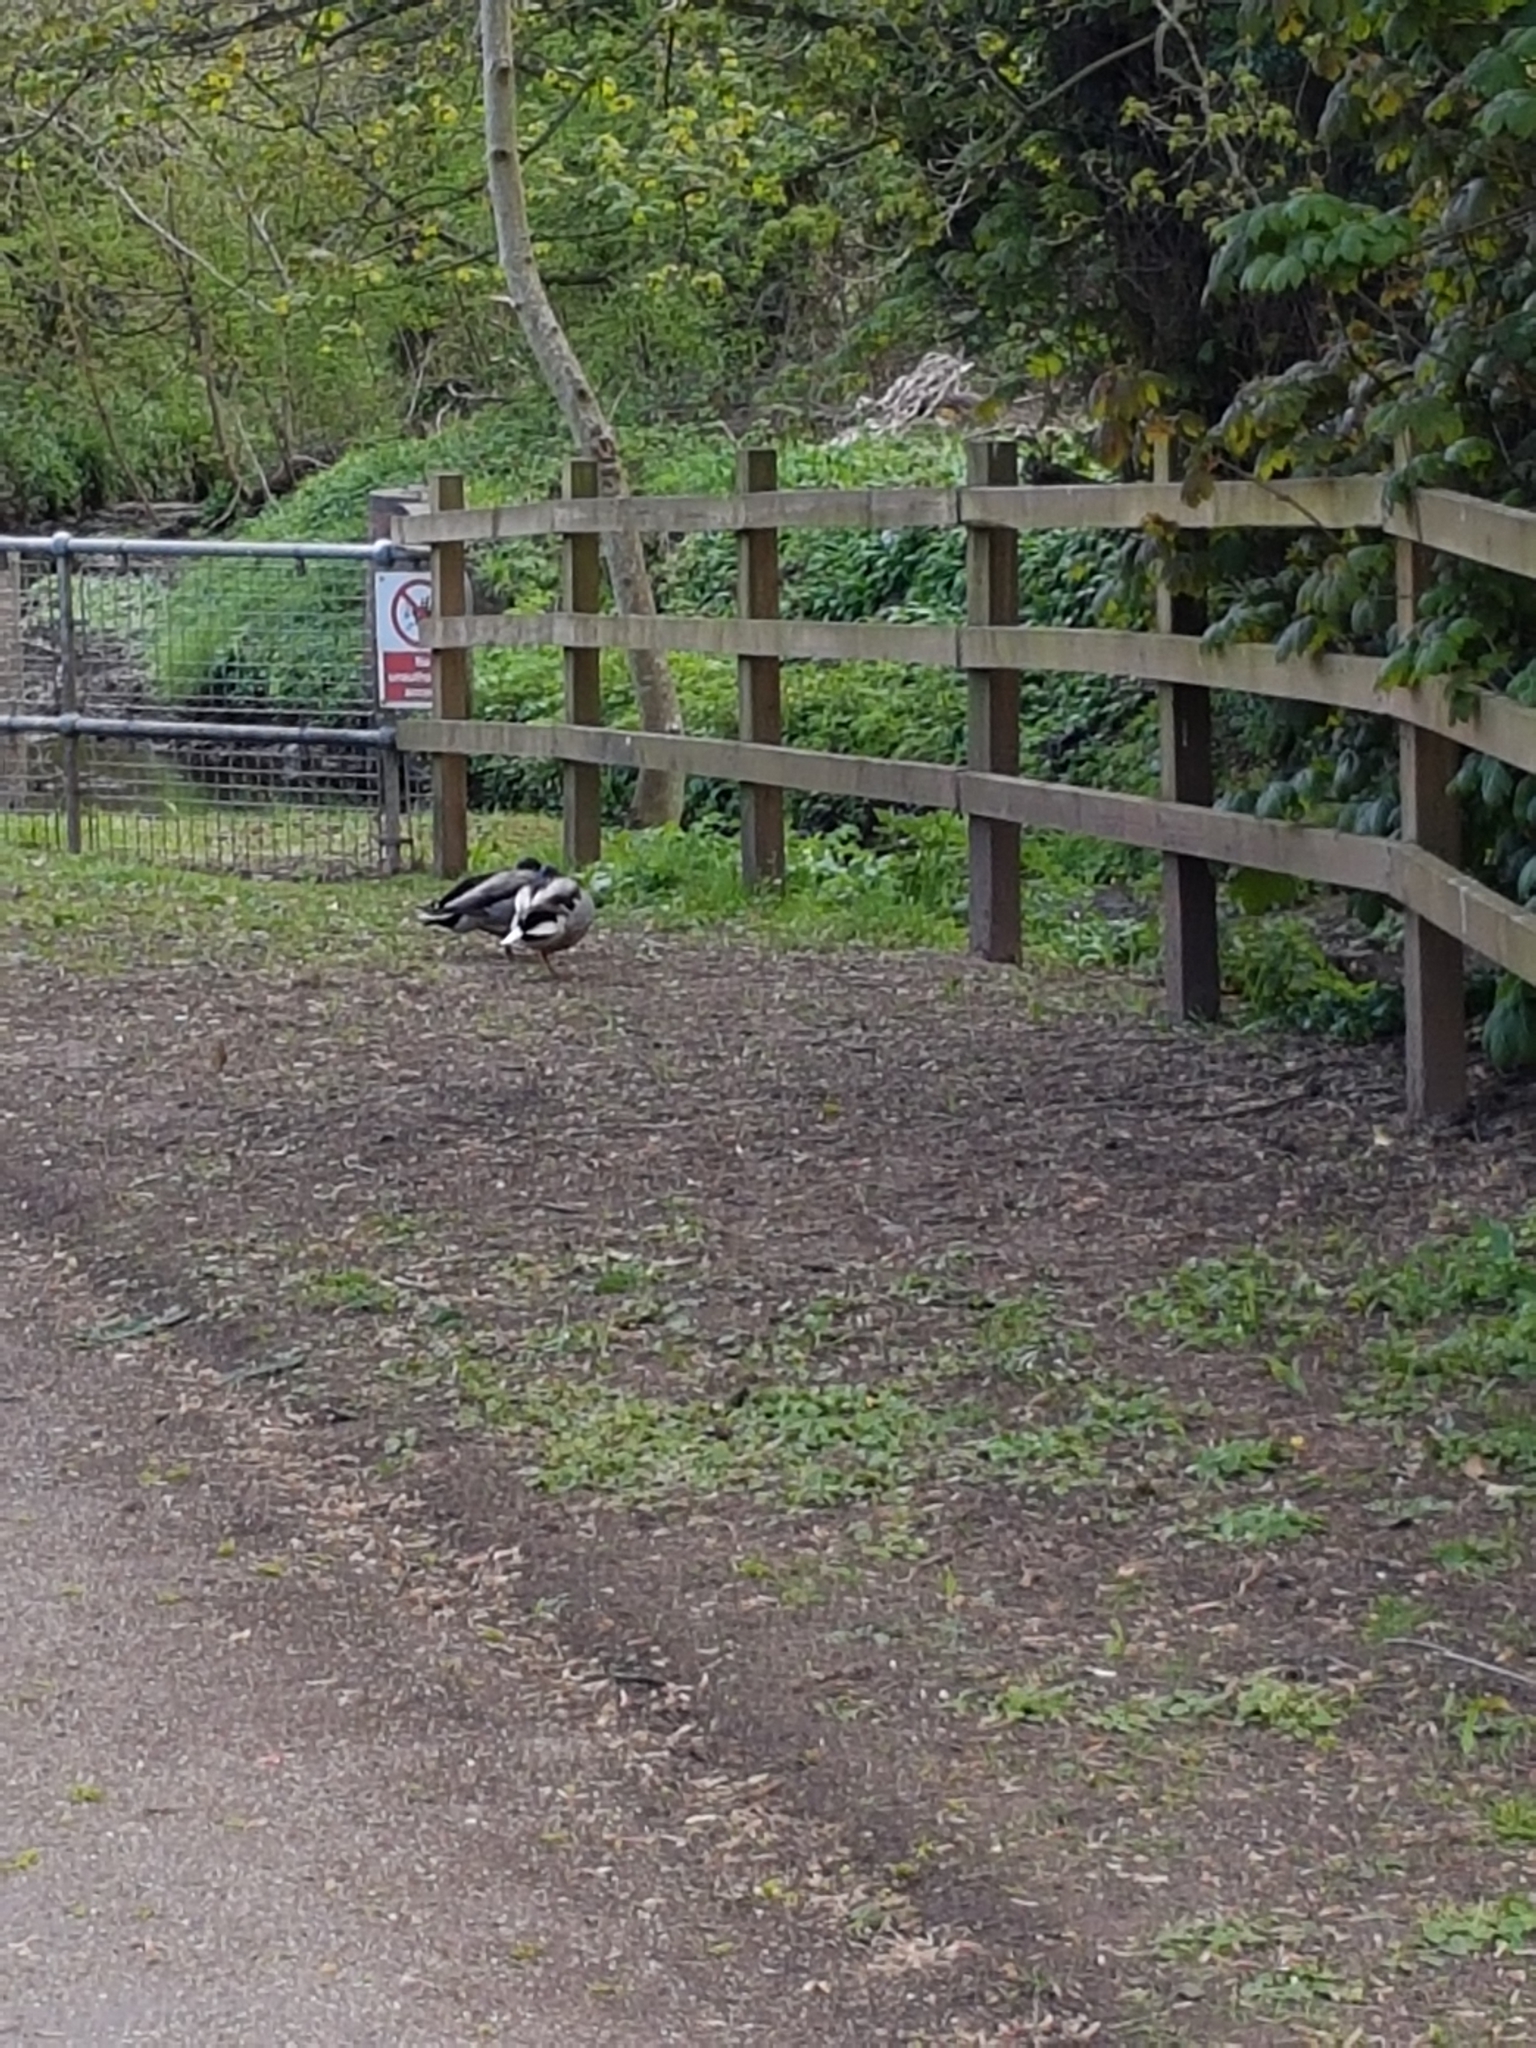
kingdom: Animalia
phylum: Chordata
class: Aves
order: Anseriformes
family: Anatidae
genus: Anas
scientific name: Anas platyrhynchos
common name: Mallard
